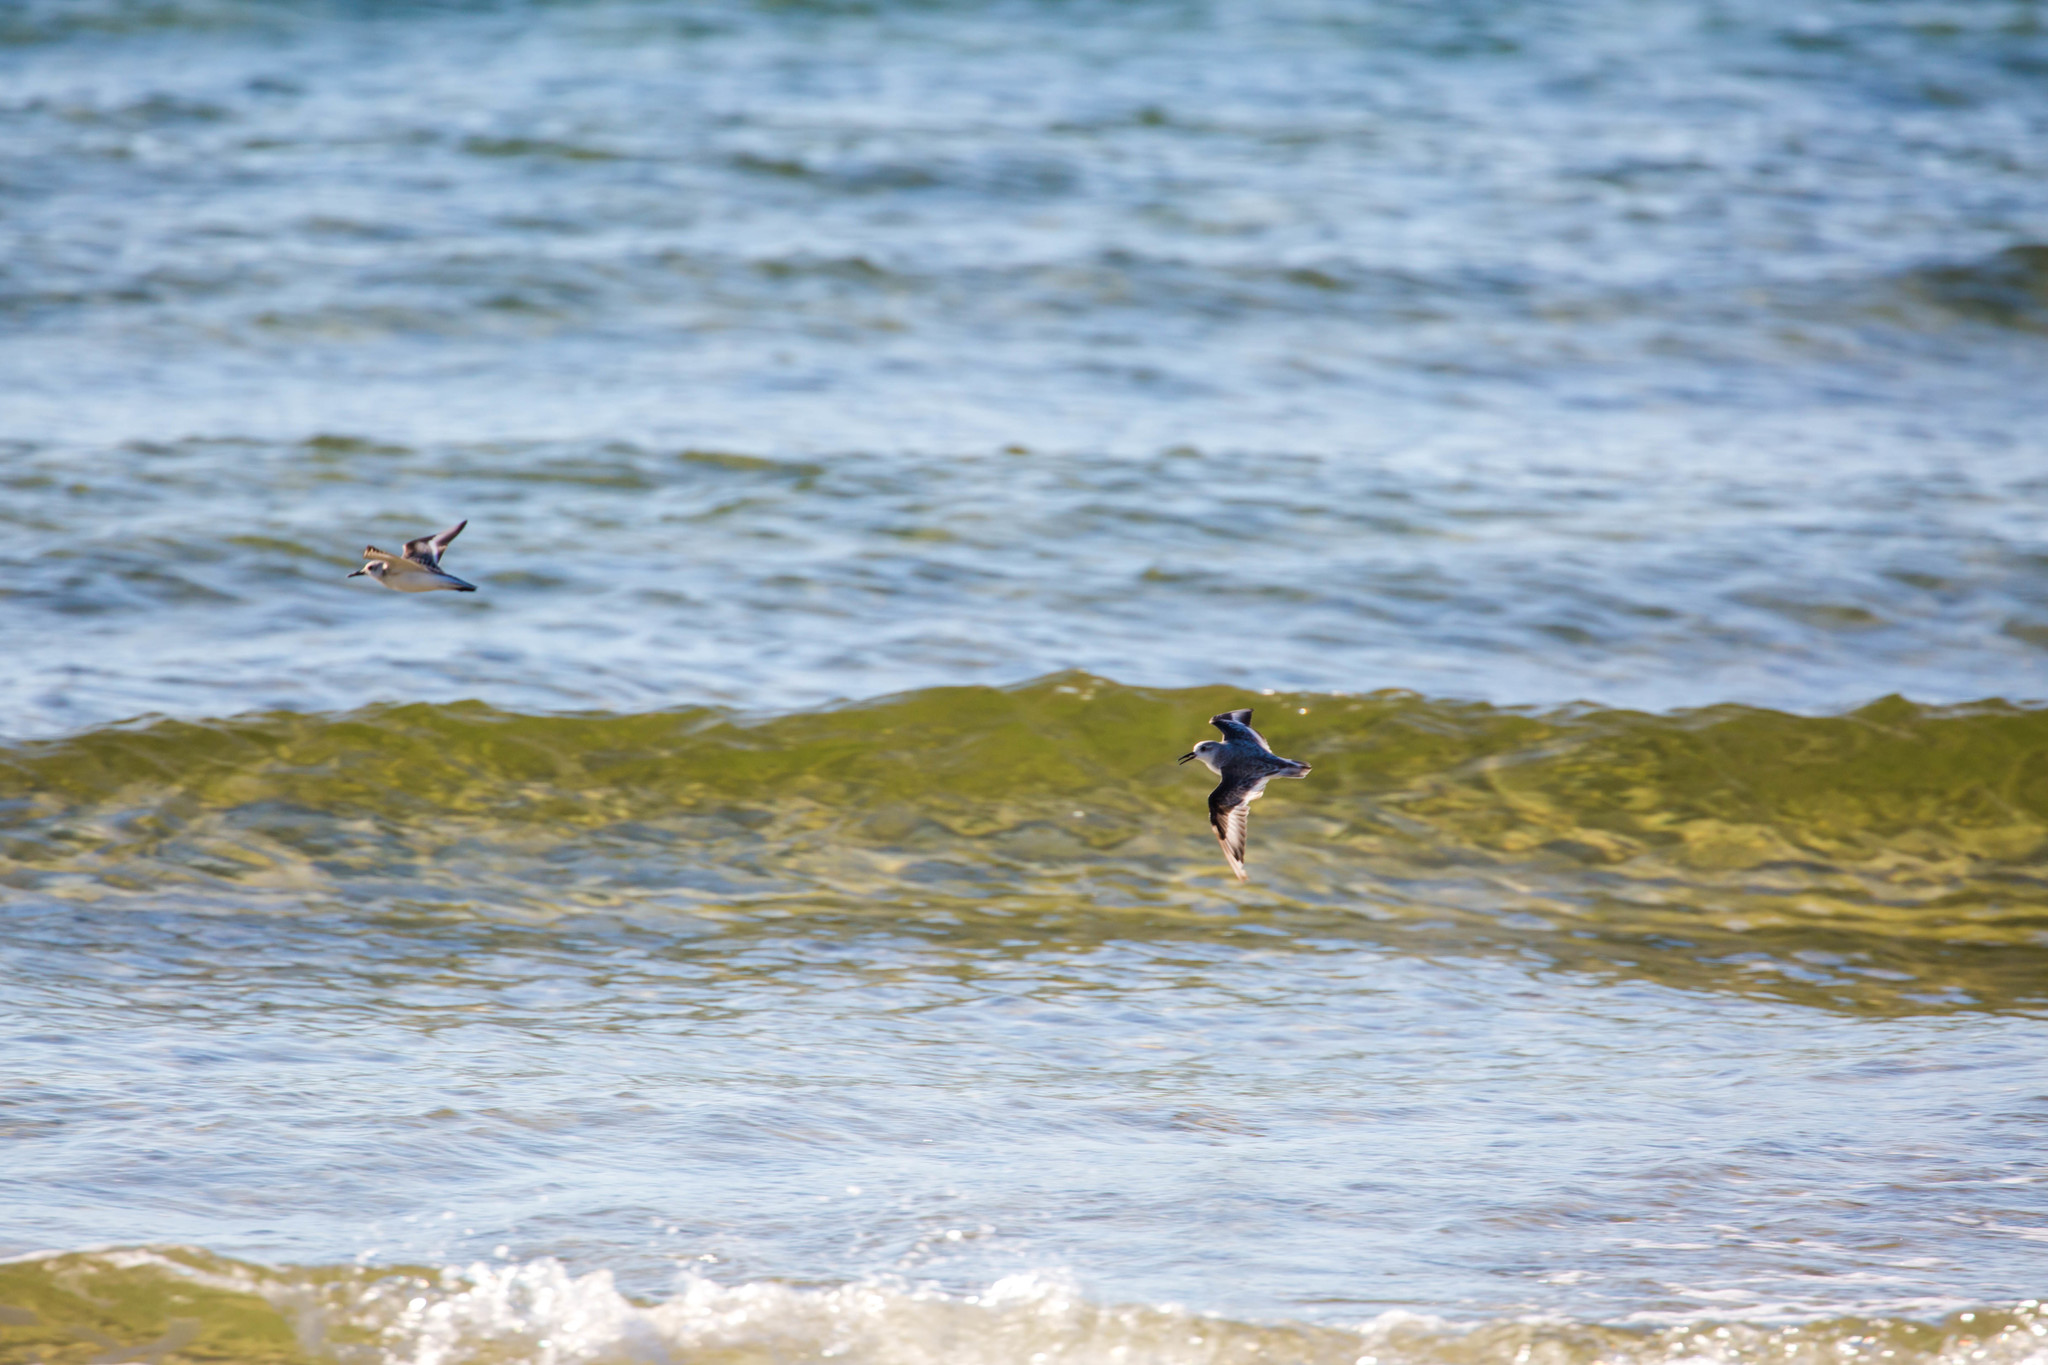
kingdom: Animalia
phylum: Chordata
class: Aves
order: Charadriiformes
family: Scolopacidae
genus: Calidris
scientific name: Calidris alba
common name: Sanderling
